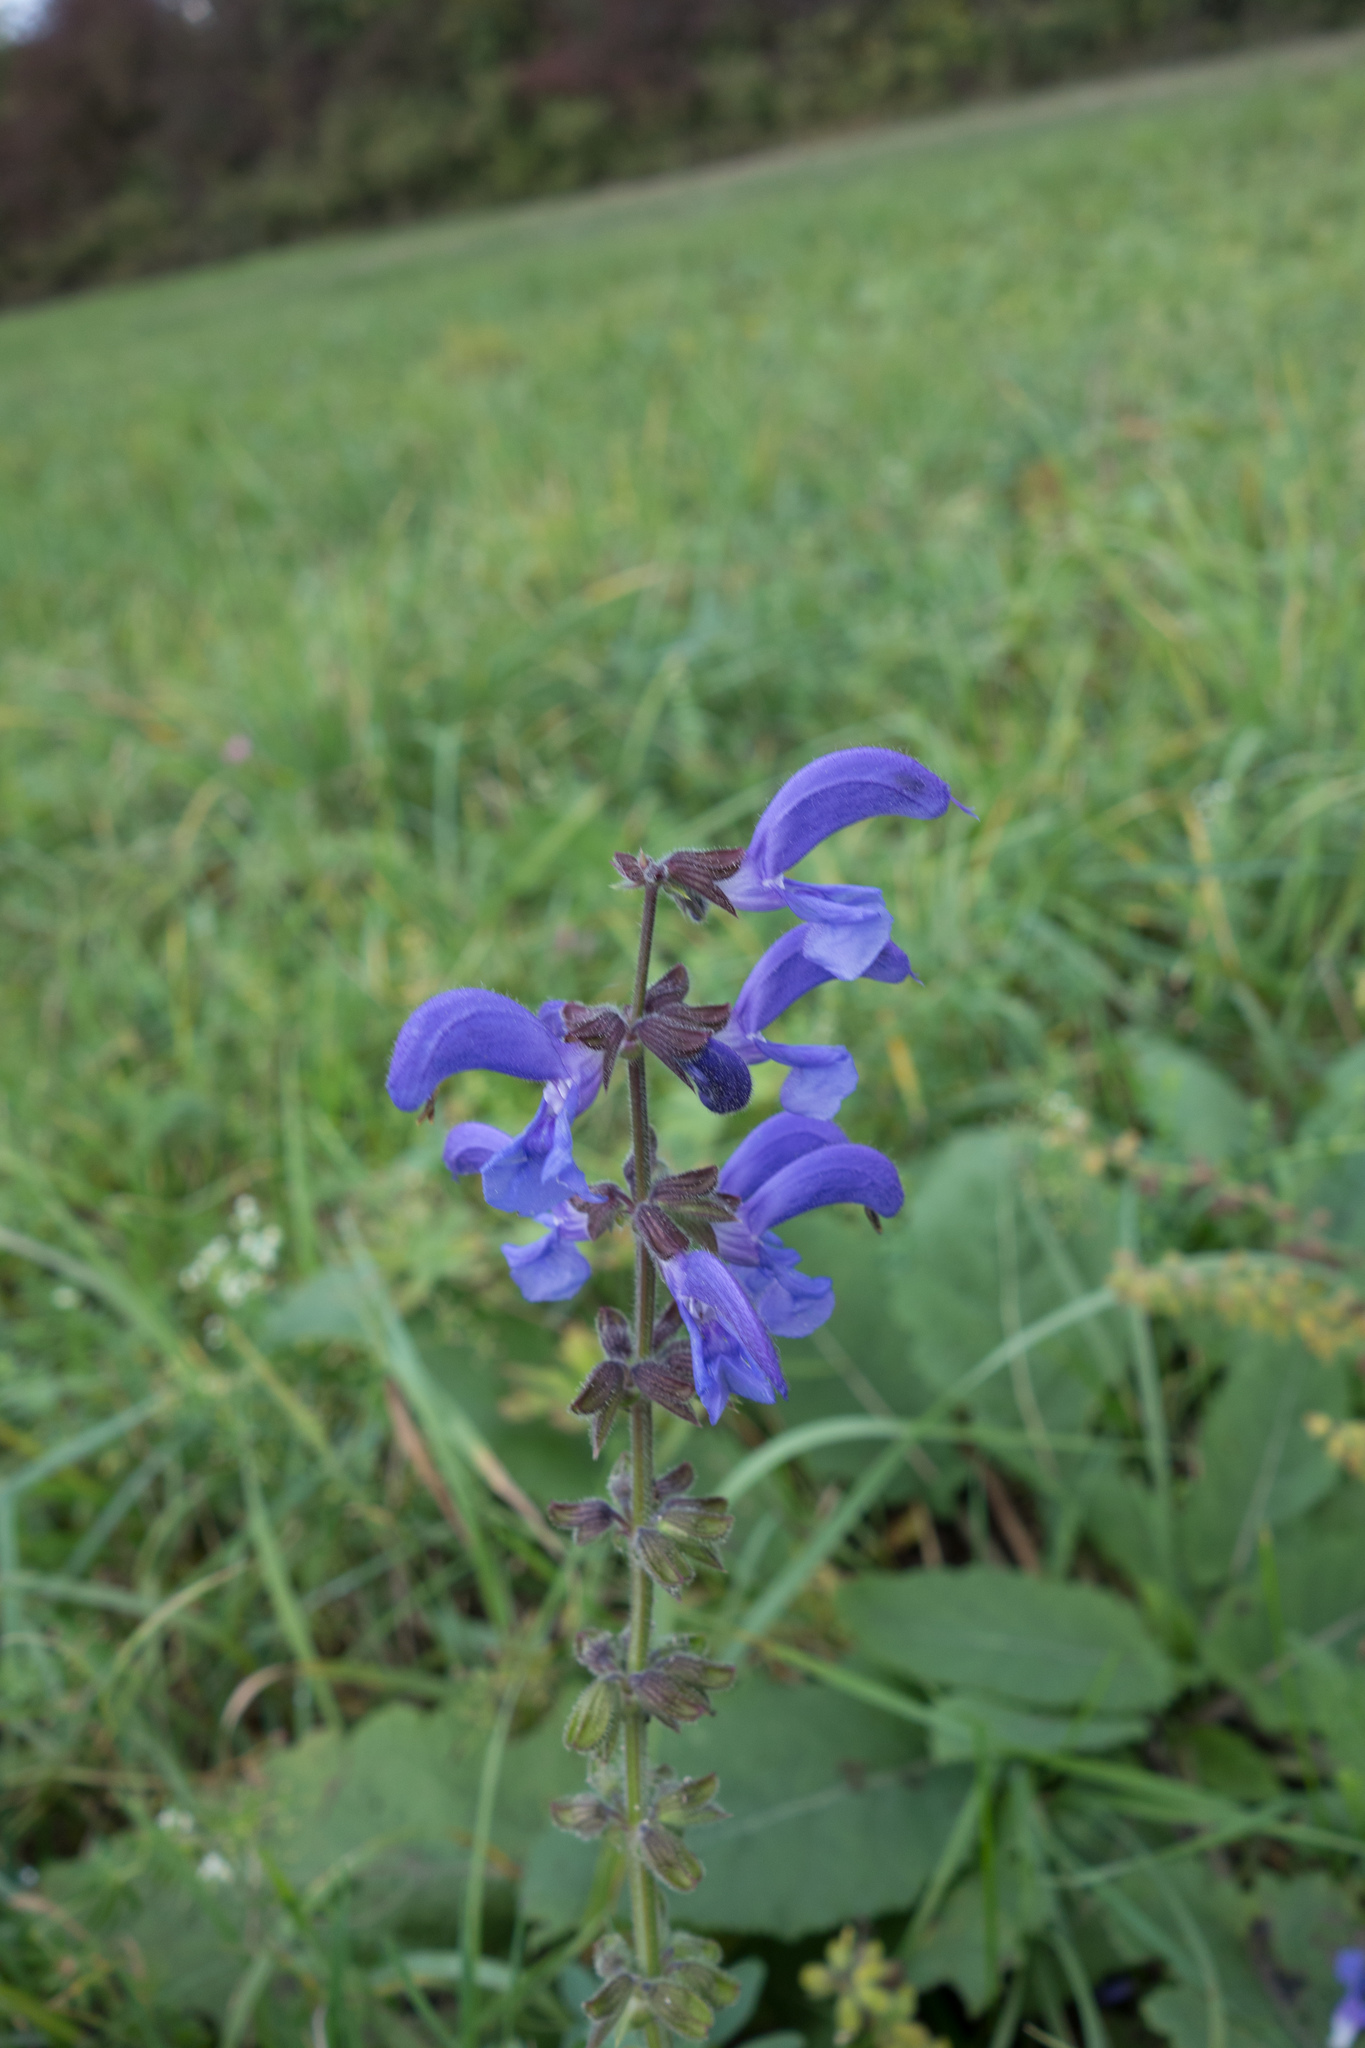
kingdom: Plantae
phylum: Tracheophyta
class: Magnoliopsida
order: Lamiales
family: Lamiaceae
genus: Salvia
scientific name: Salvia pratensis
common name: Meadow sage
